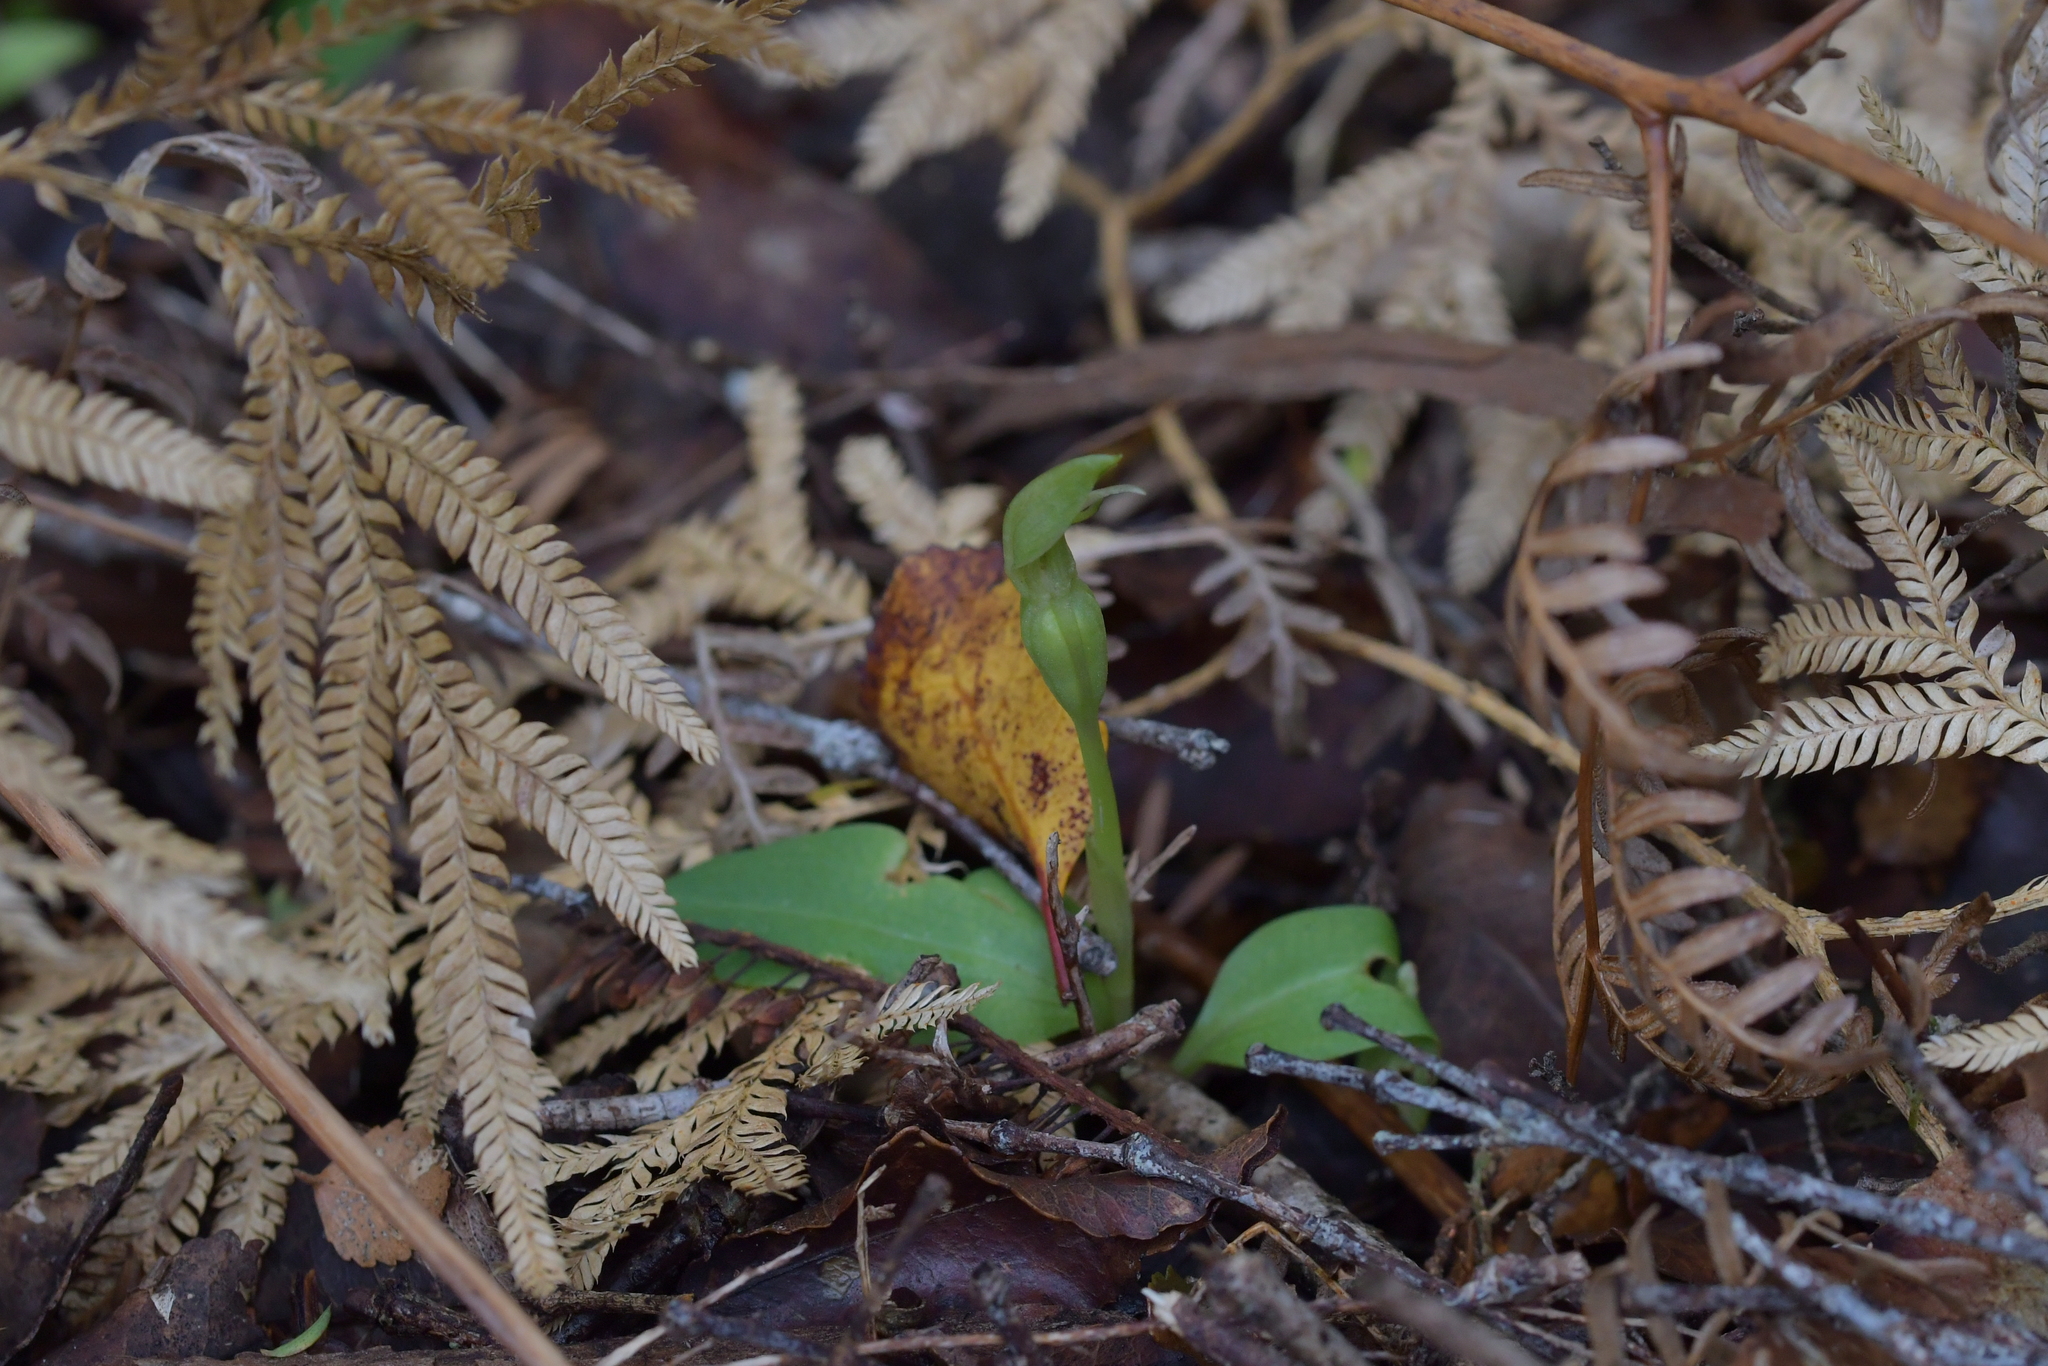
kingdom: Plantae
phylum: Tracheophyta
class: Liliopsida
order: Asparagales
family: Orchidaceae
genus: Chiloglottis
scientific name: Chiloglottis cornuta
